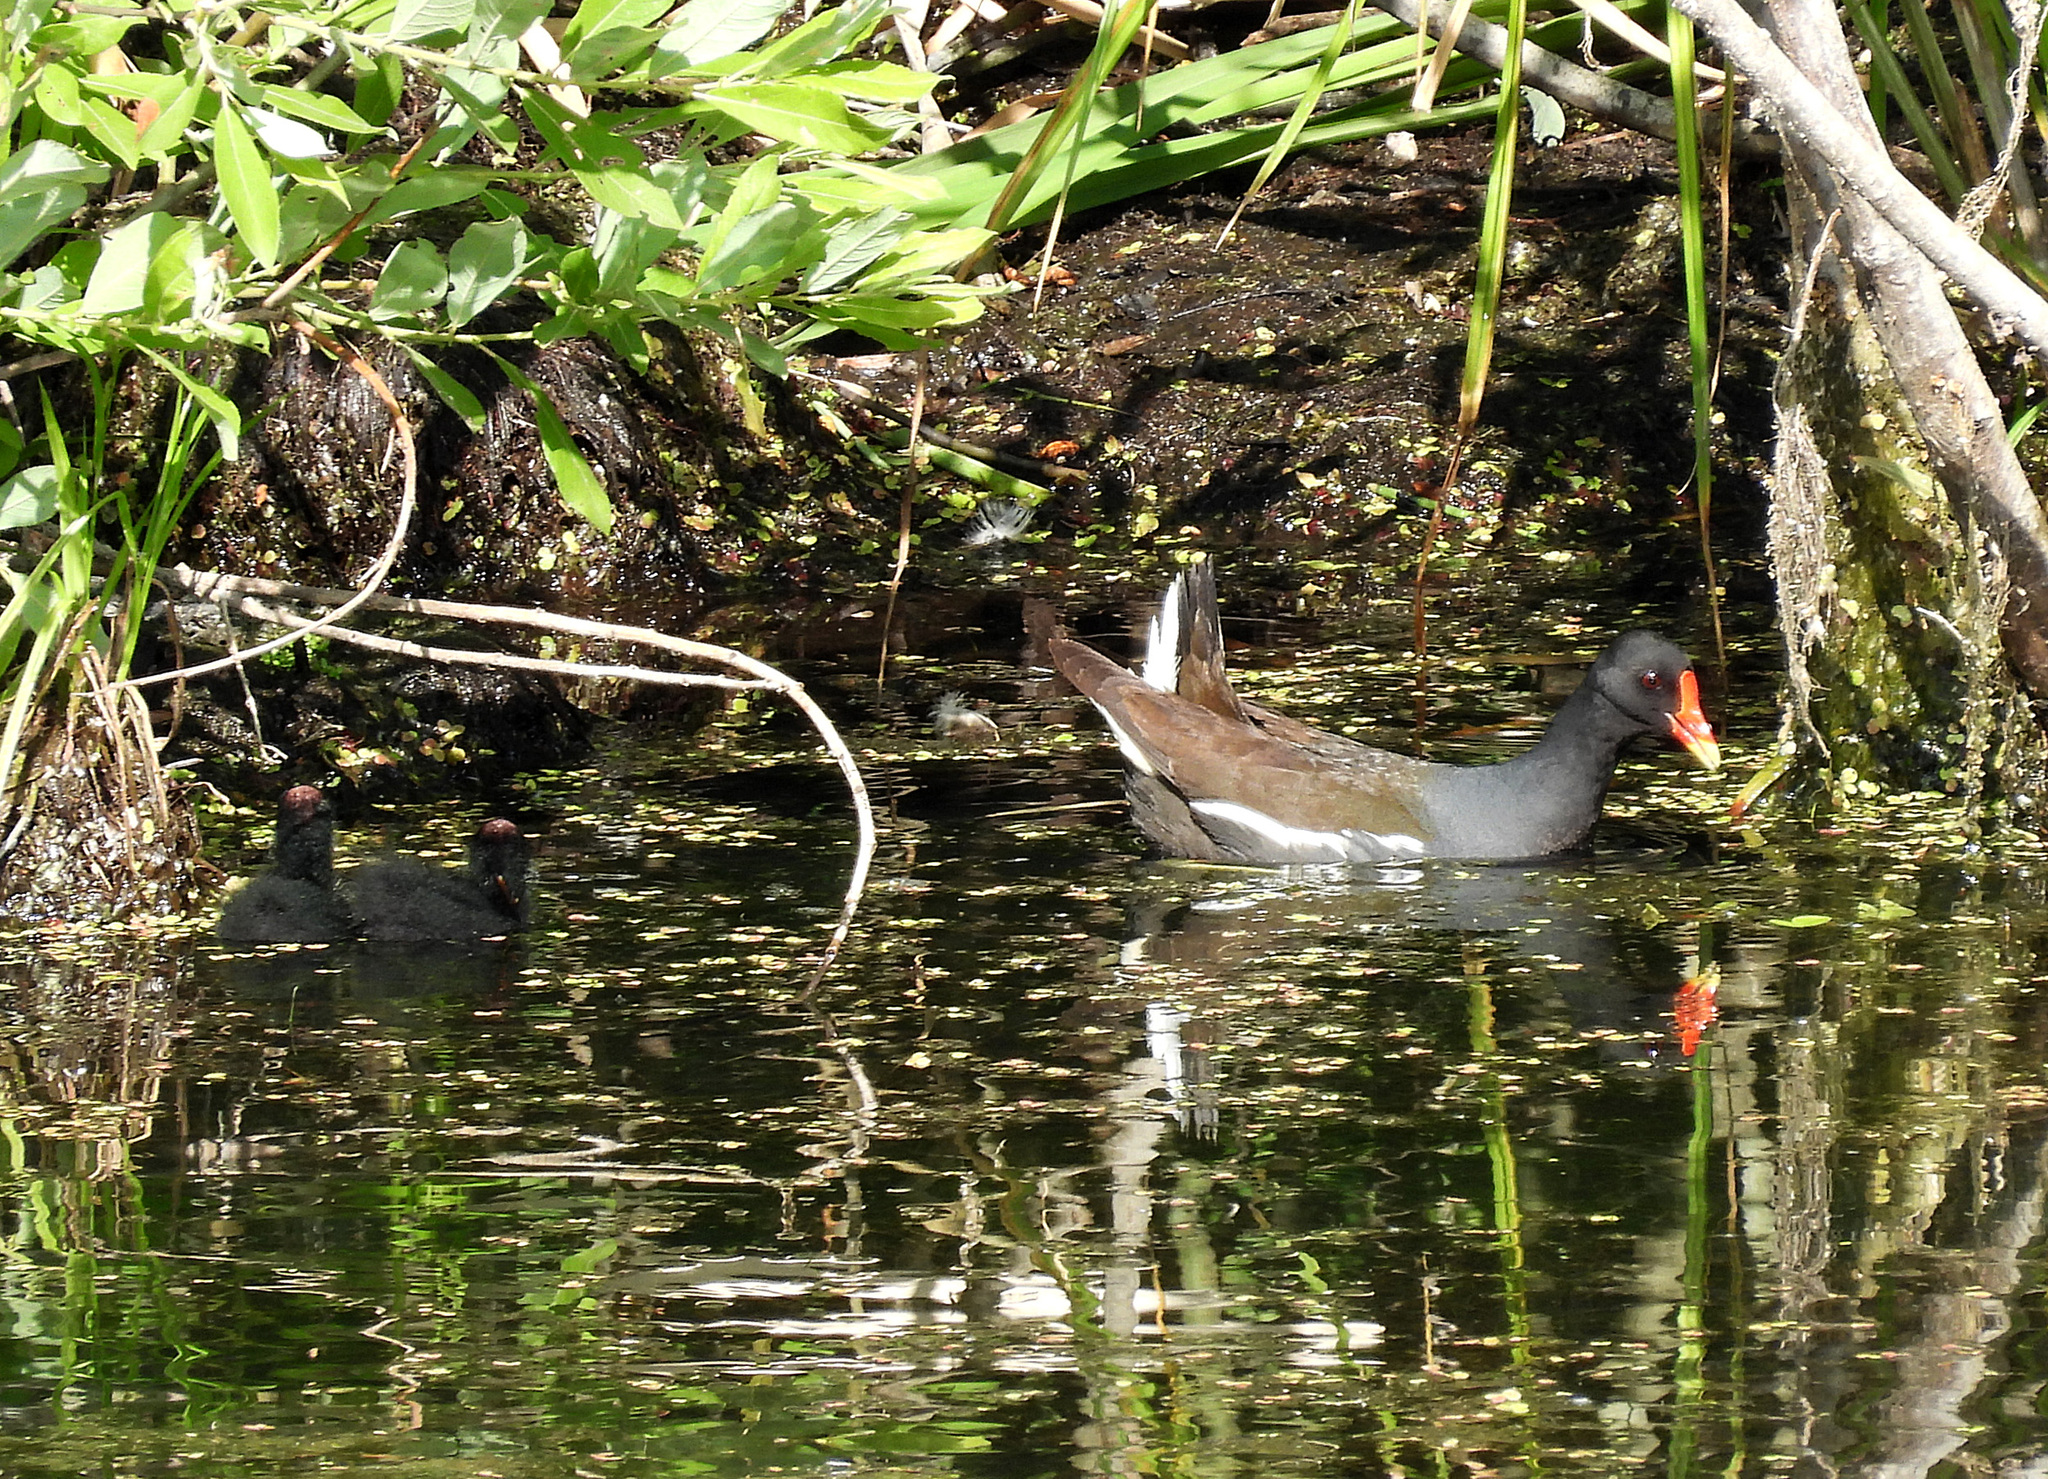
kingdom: Animalia
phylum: Chordata
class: Aves
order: Gruiformes
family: Rallidae
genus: Gallinula
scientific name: Gallinula chloropus
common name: Common moorhen
